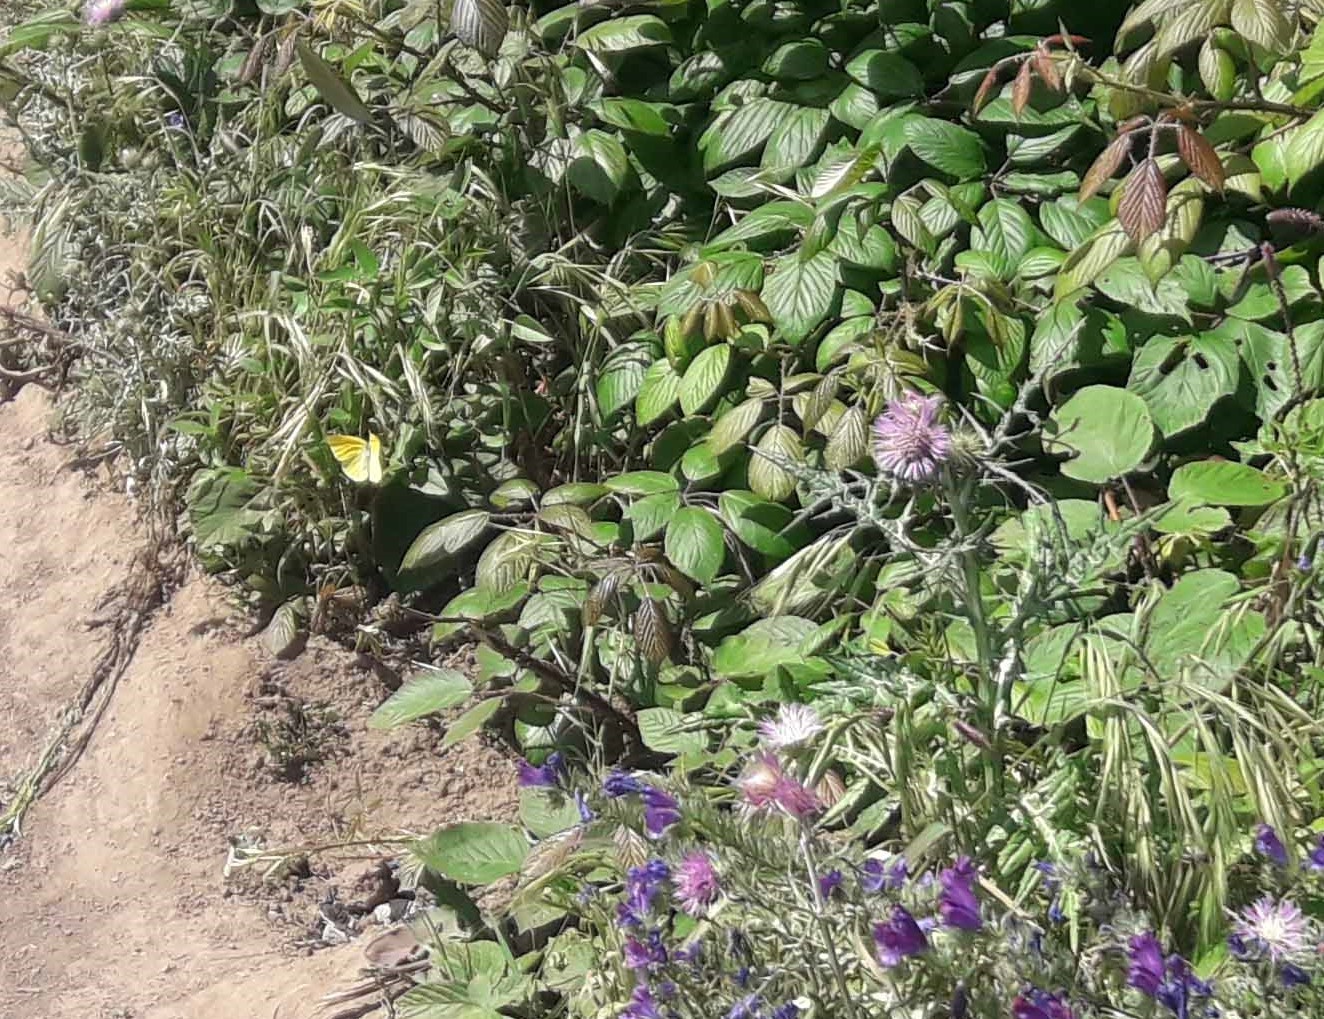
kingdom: Animalia
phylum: Arthropoda
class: Insecta
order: Lepidoptera
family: Pieridae
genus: Gonepteryx
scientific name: Gonepteryx cleobule
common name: Canary brimstone
